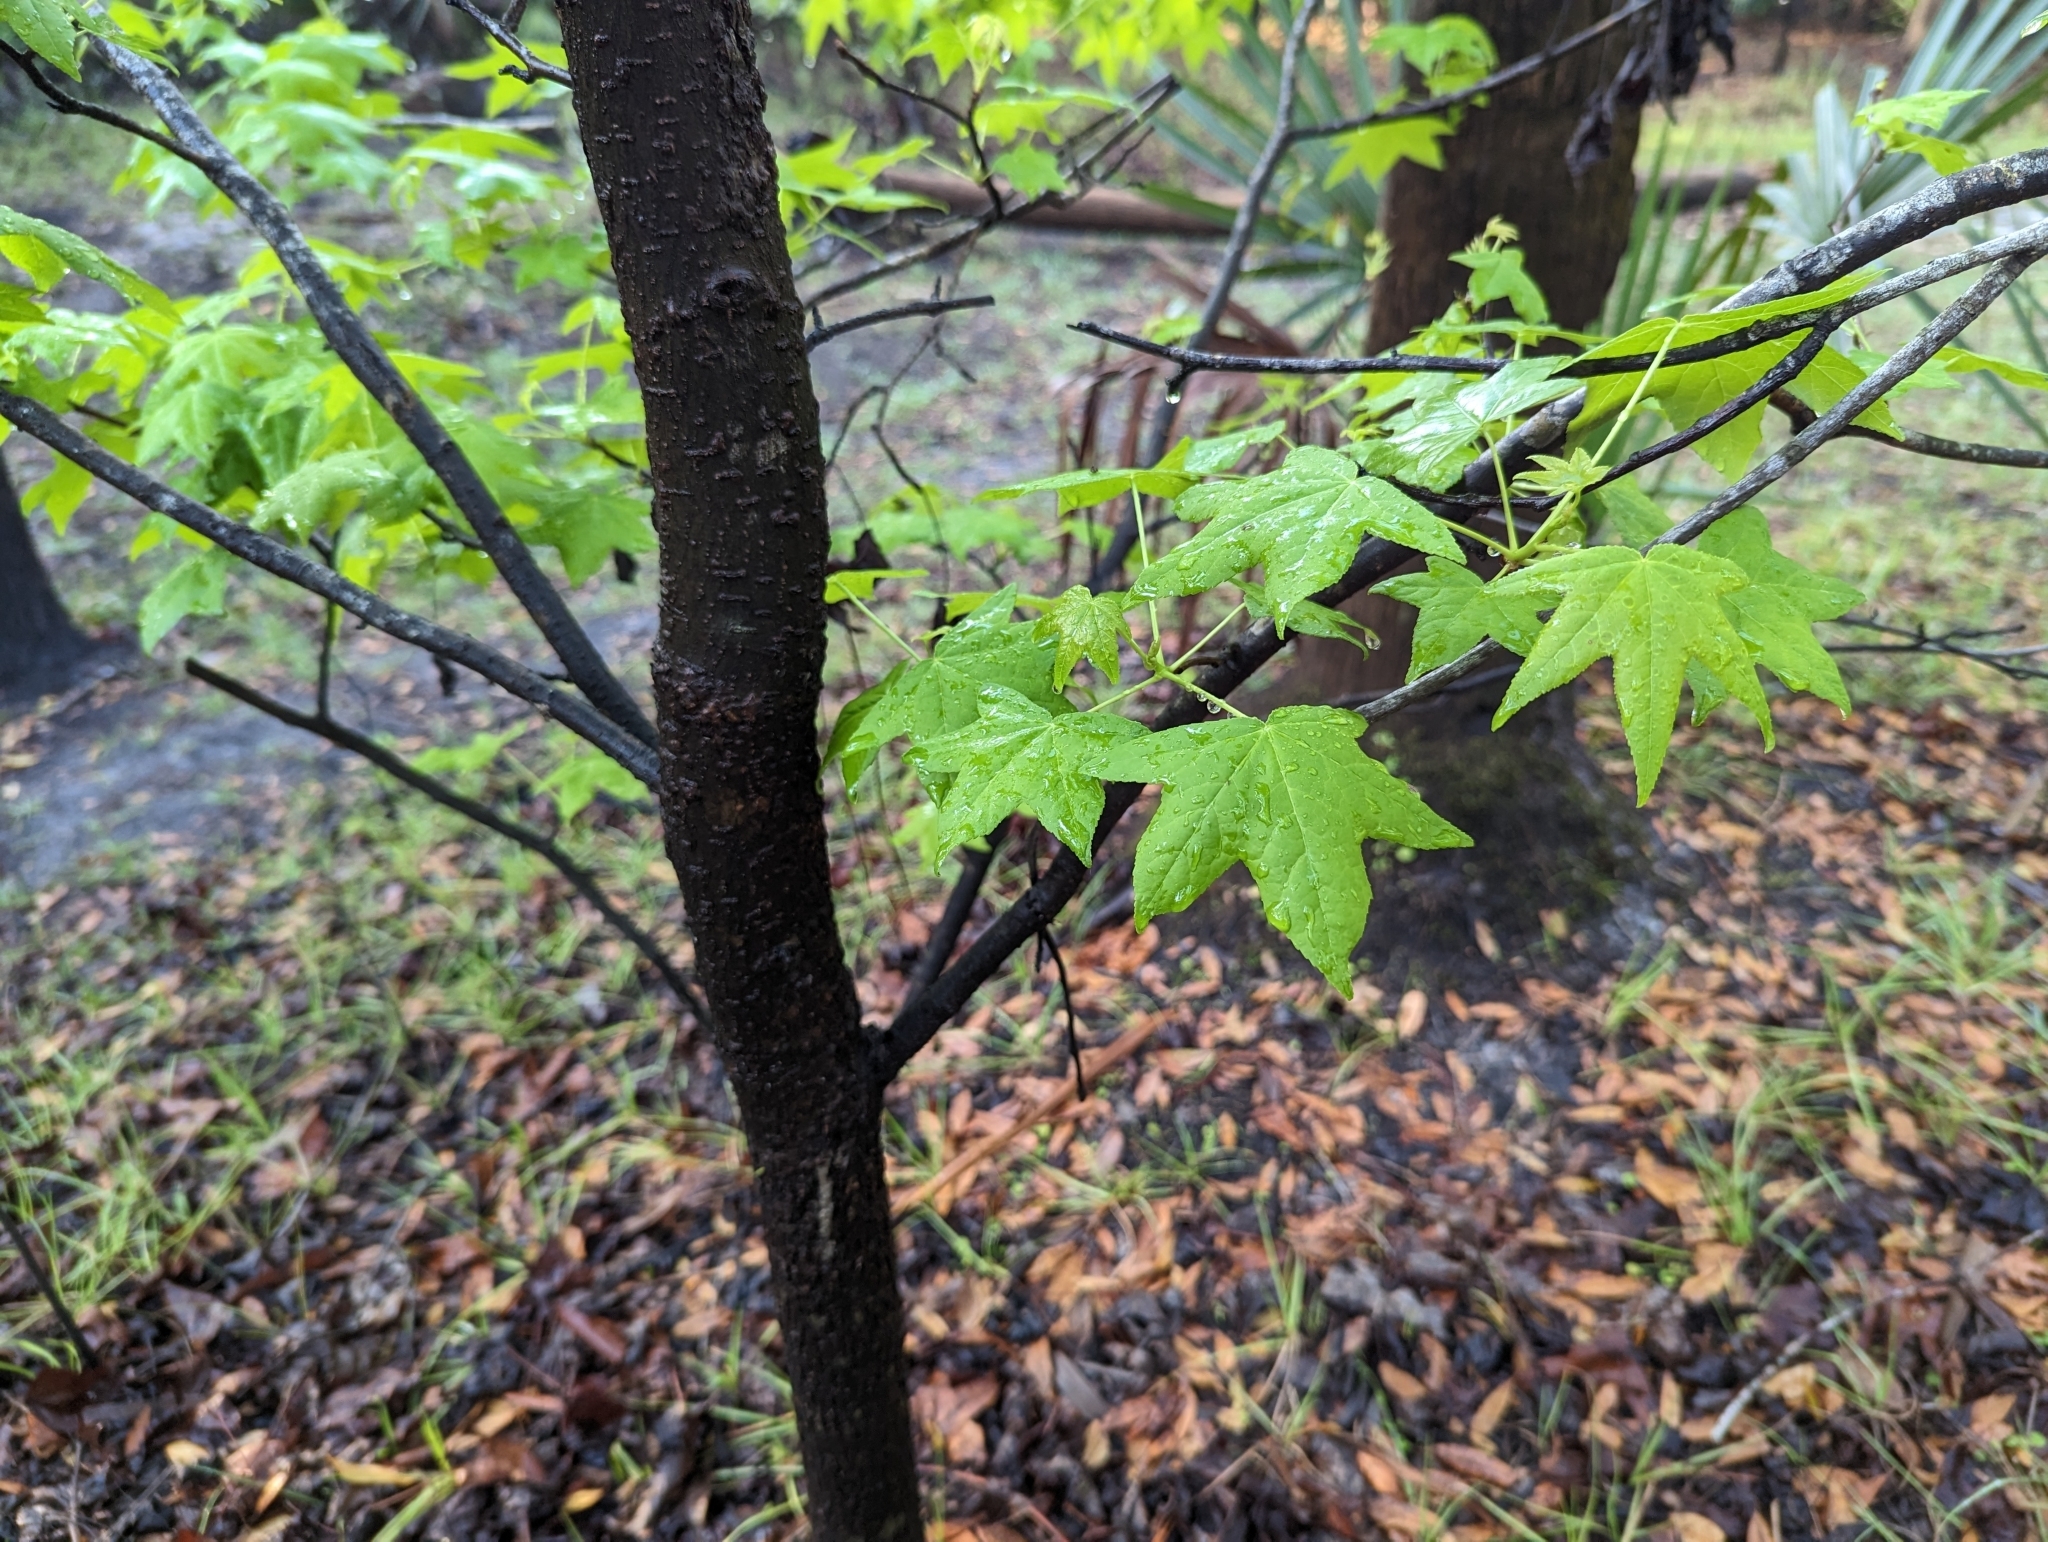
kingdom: Plantae
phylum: Tracheophyta
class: Magnoliopsida
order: Saxifragales
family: Altingiaceae
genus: Liquidambar
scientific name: Liquidambar styraciflua
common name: Sweet gum
